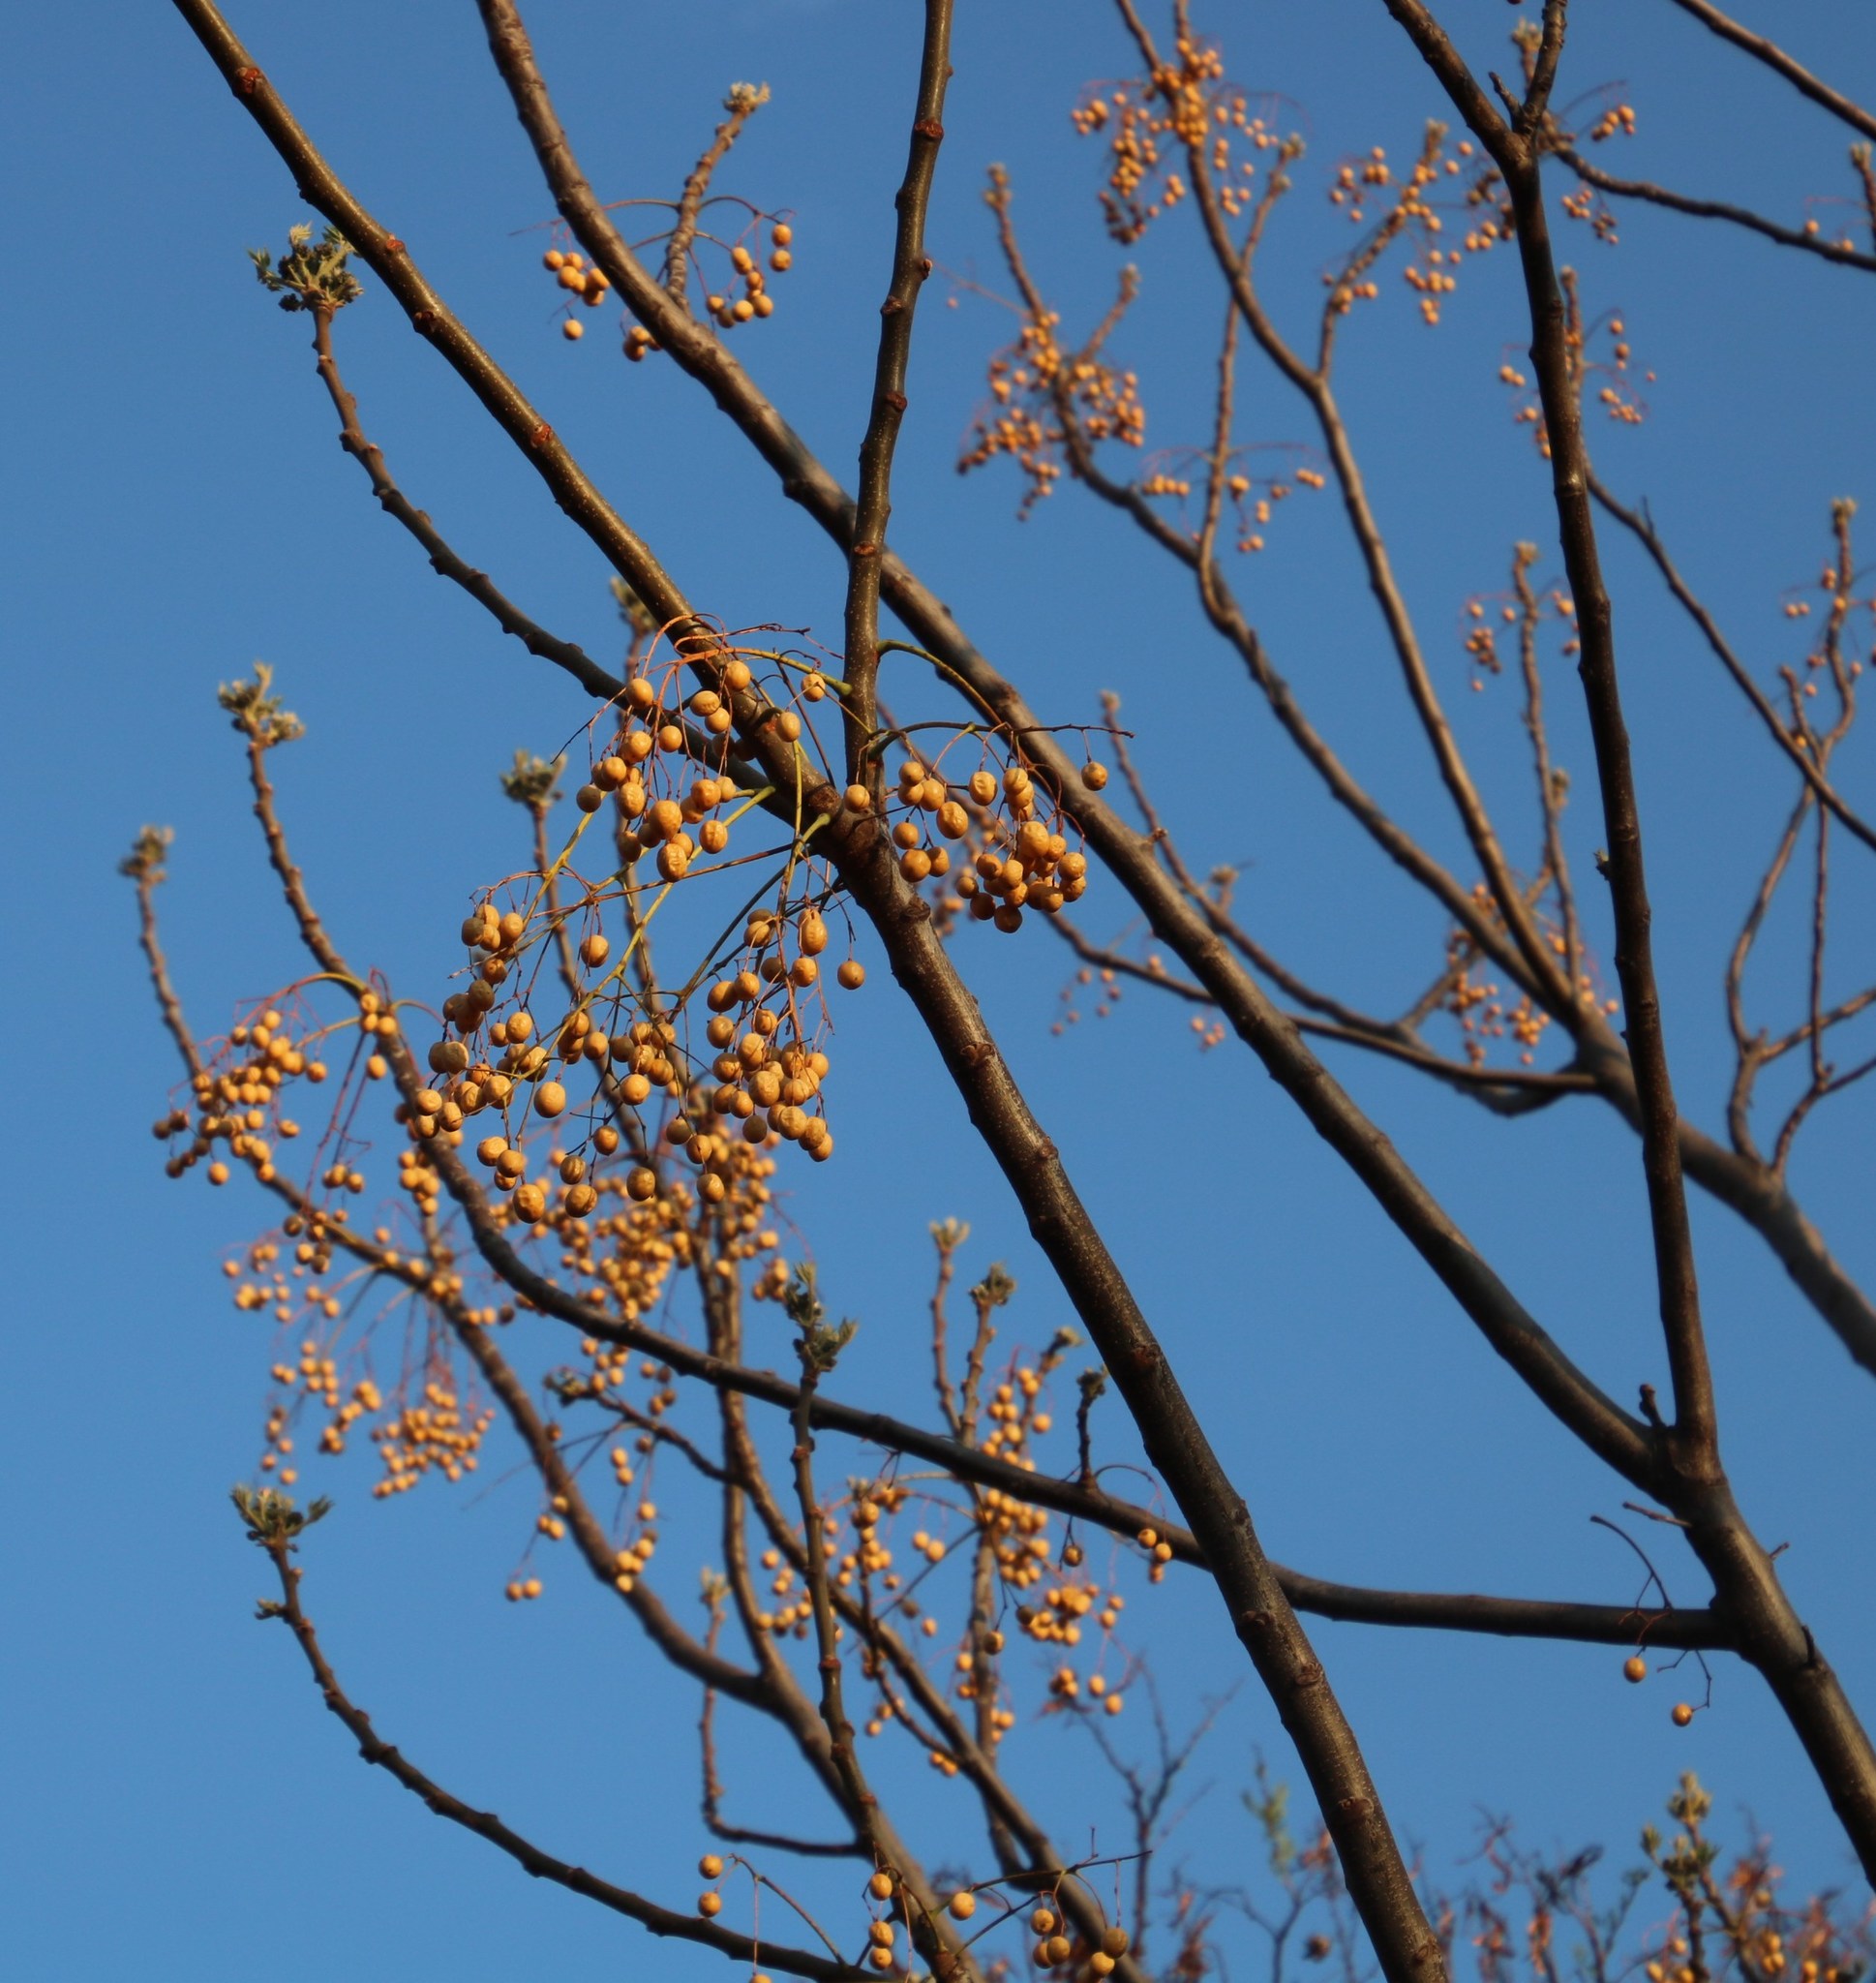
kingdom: Plantae
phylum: Tracheophyta
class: Magnoliopsida
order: Sapindales
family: Meliaceae
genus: Melia
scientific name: Melia azedarach
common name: Chinaberrytree
